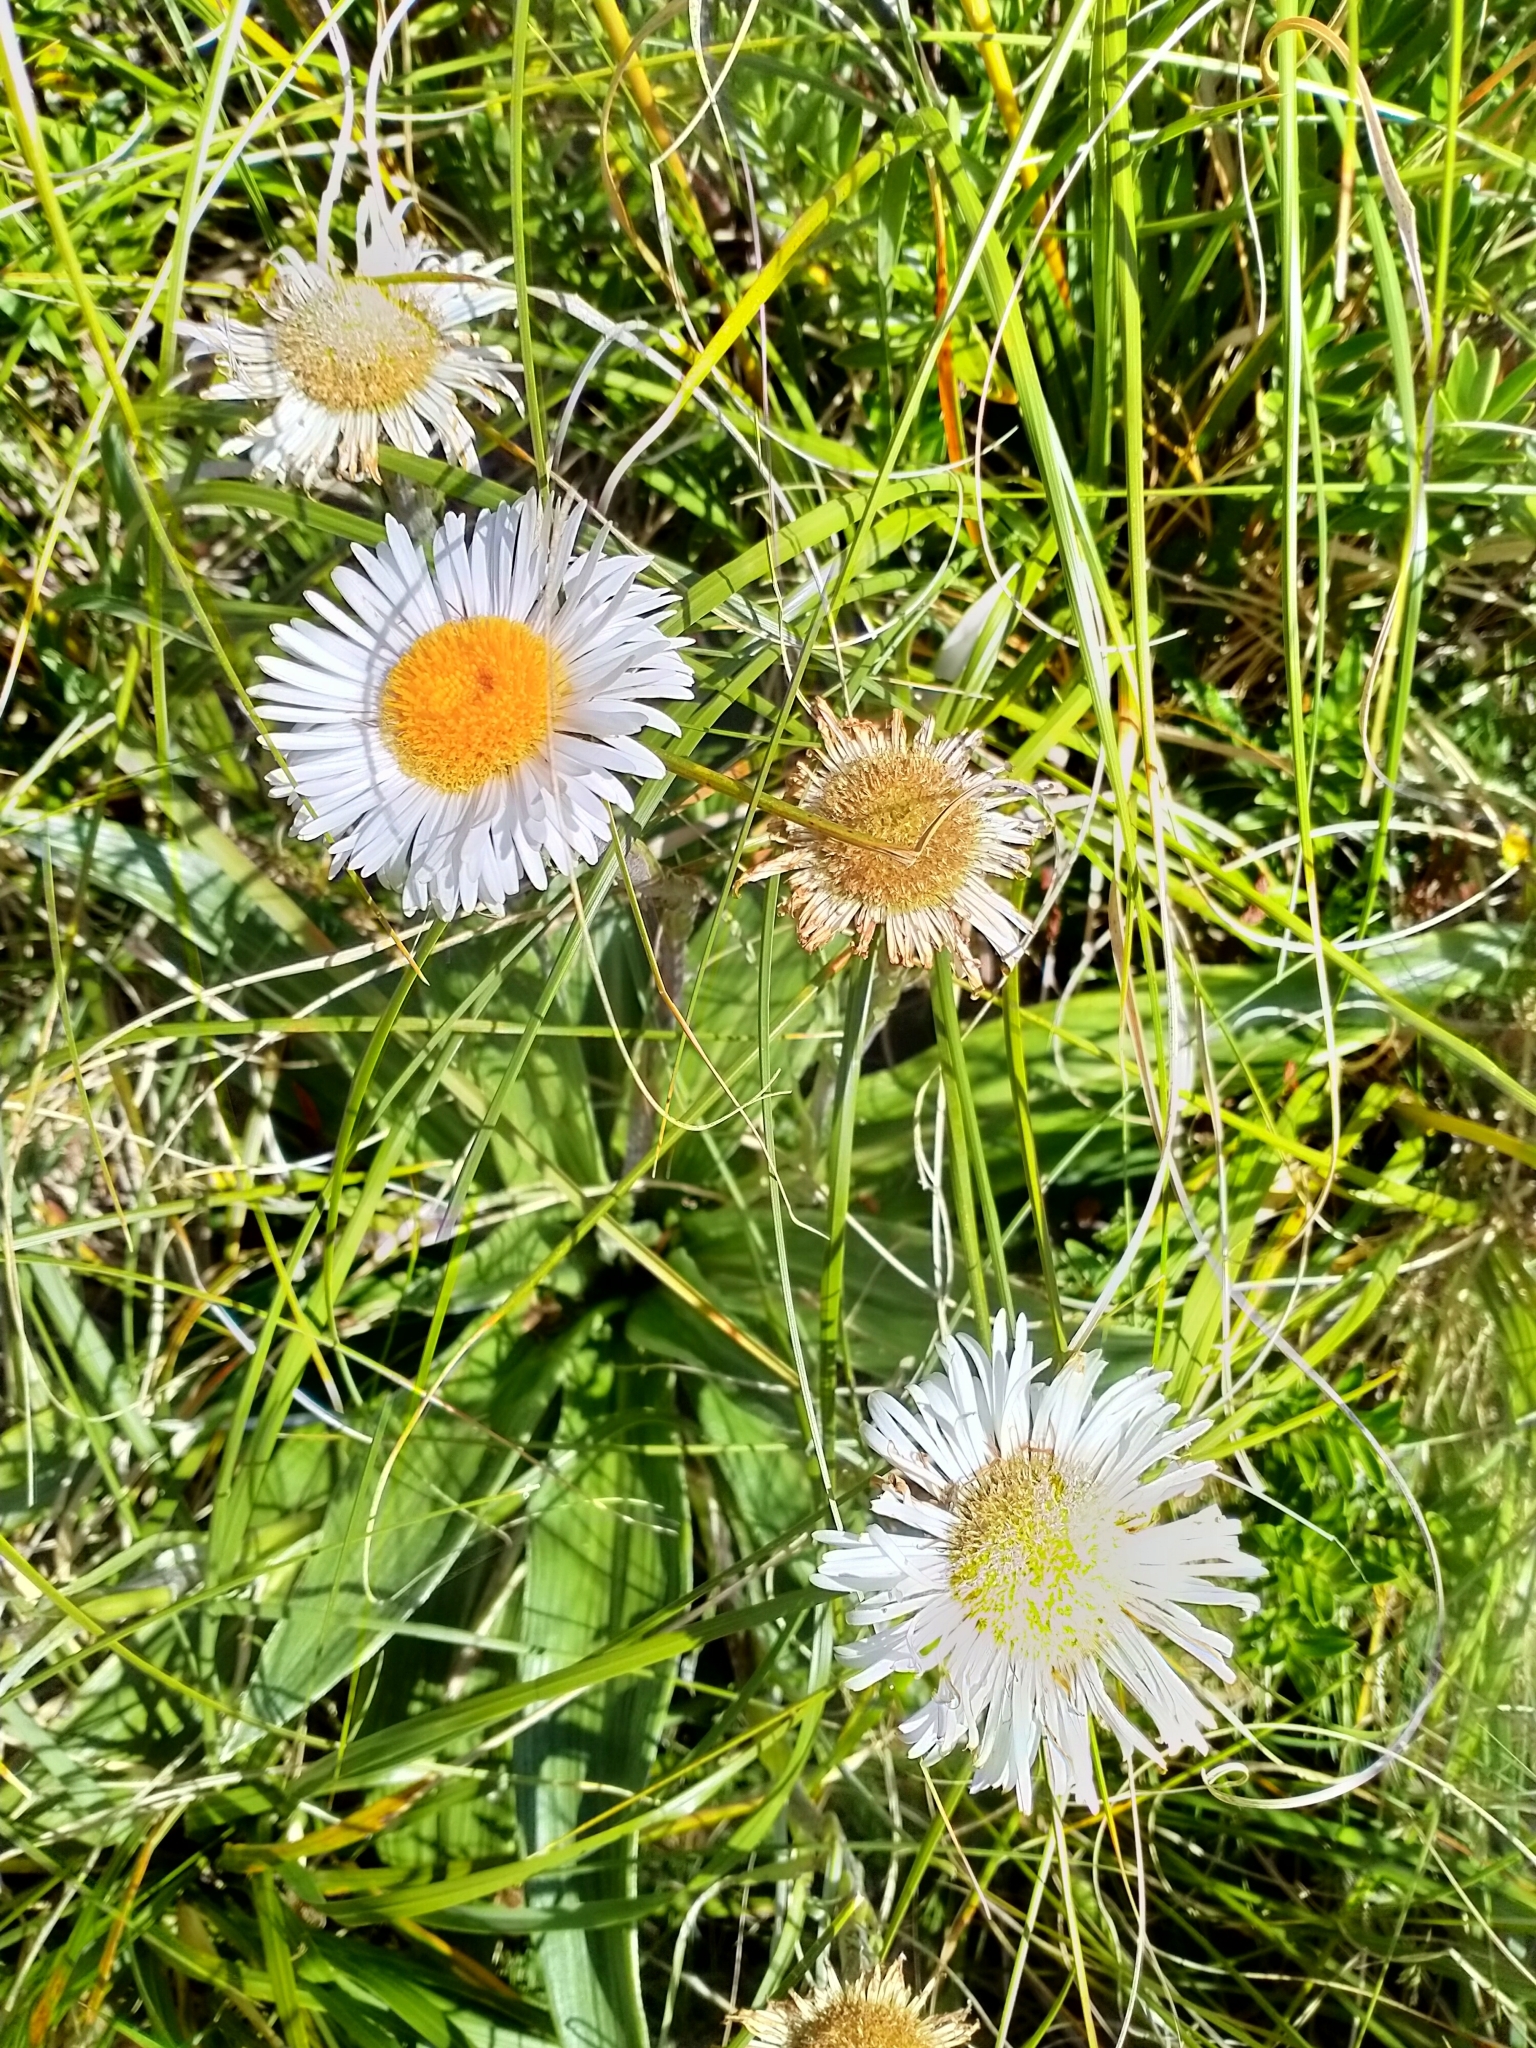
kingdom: Plantae
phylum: Tracheophyta
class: Magnoliopsida
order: Asterales
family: Asteraceae
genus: Celmisia
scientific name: Celmisia semicordata
